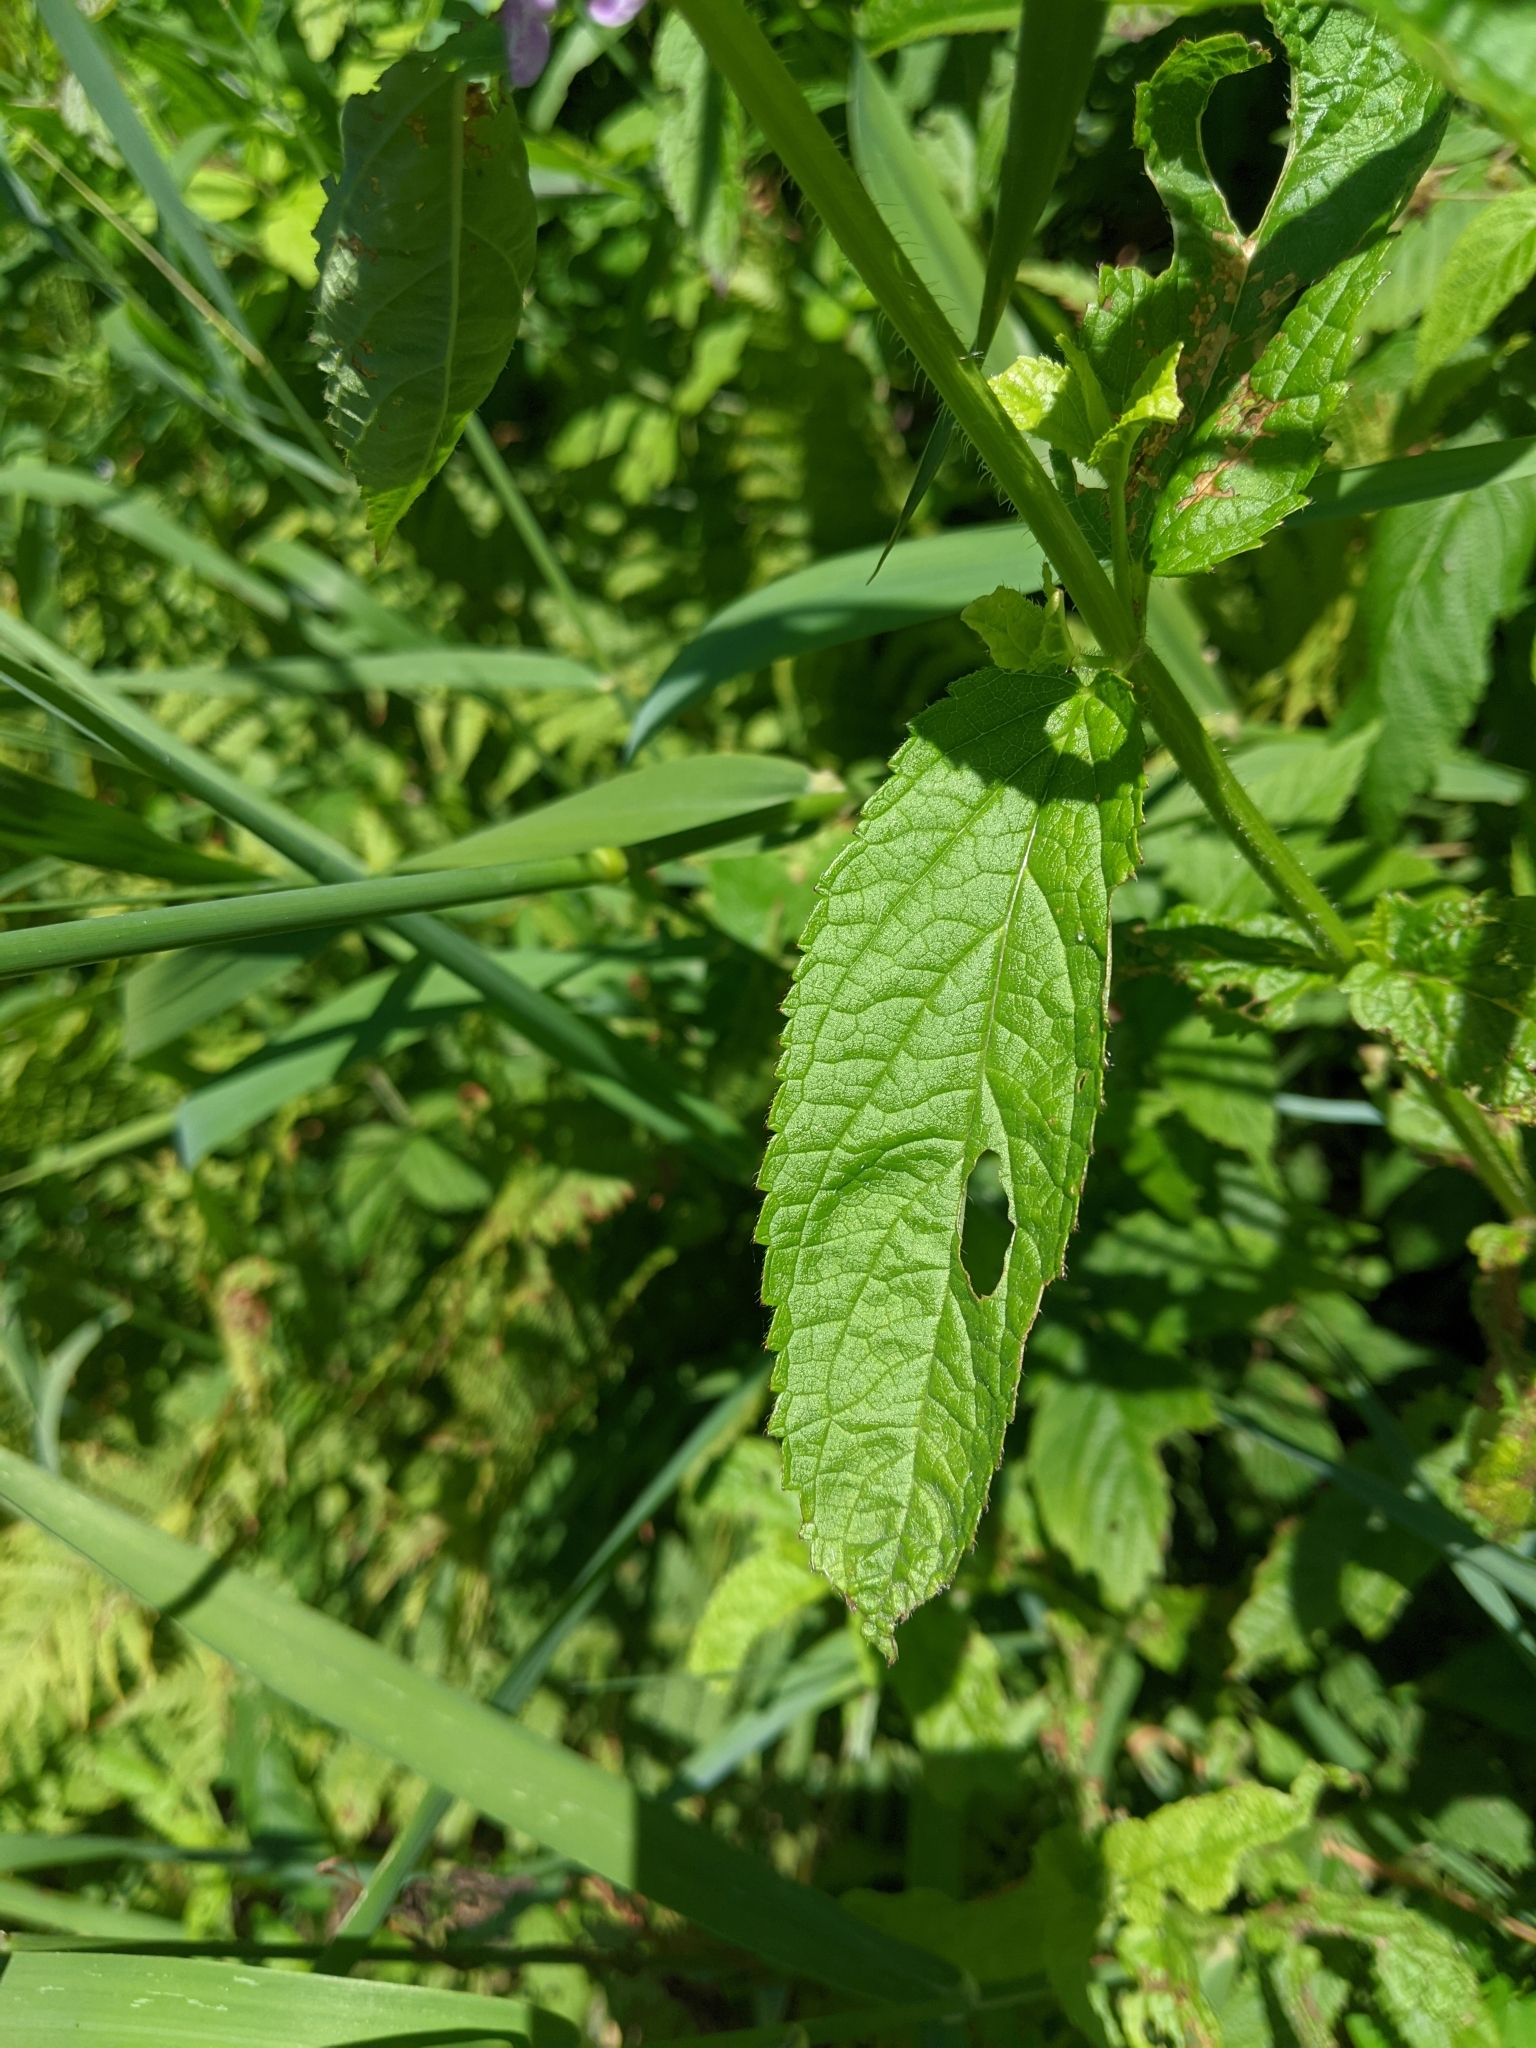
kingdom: Plantae
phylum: Tracheophyta
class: Magnoliopsida
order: Lamiales
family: Lamiaceae
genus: Stachys
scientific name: Stachys palustris
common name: Marsh woundwort
